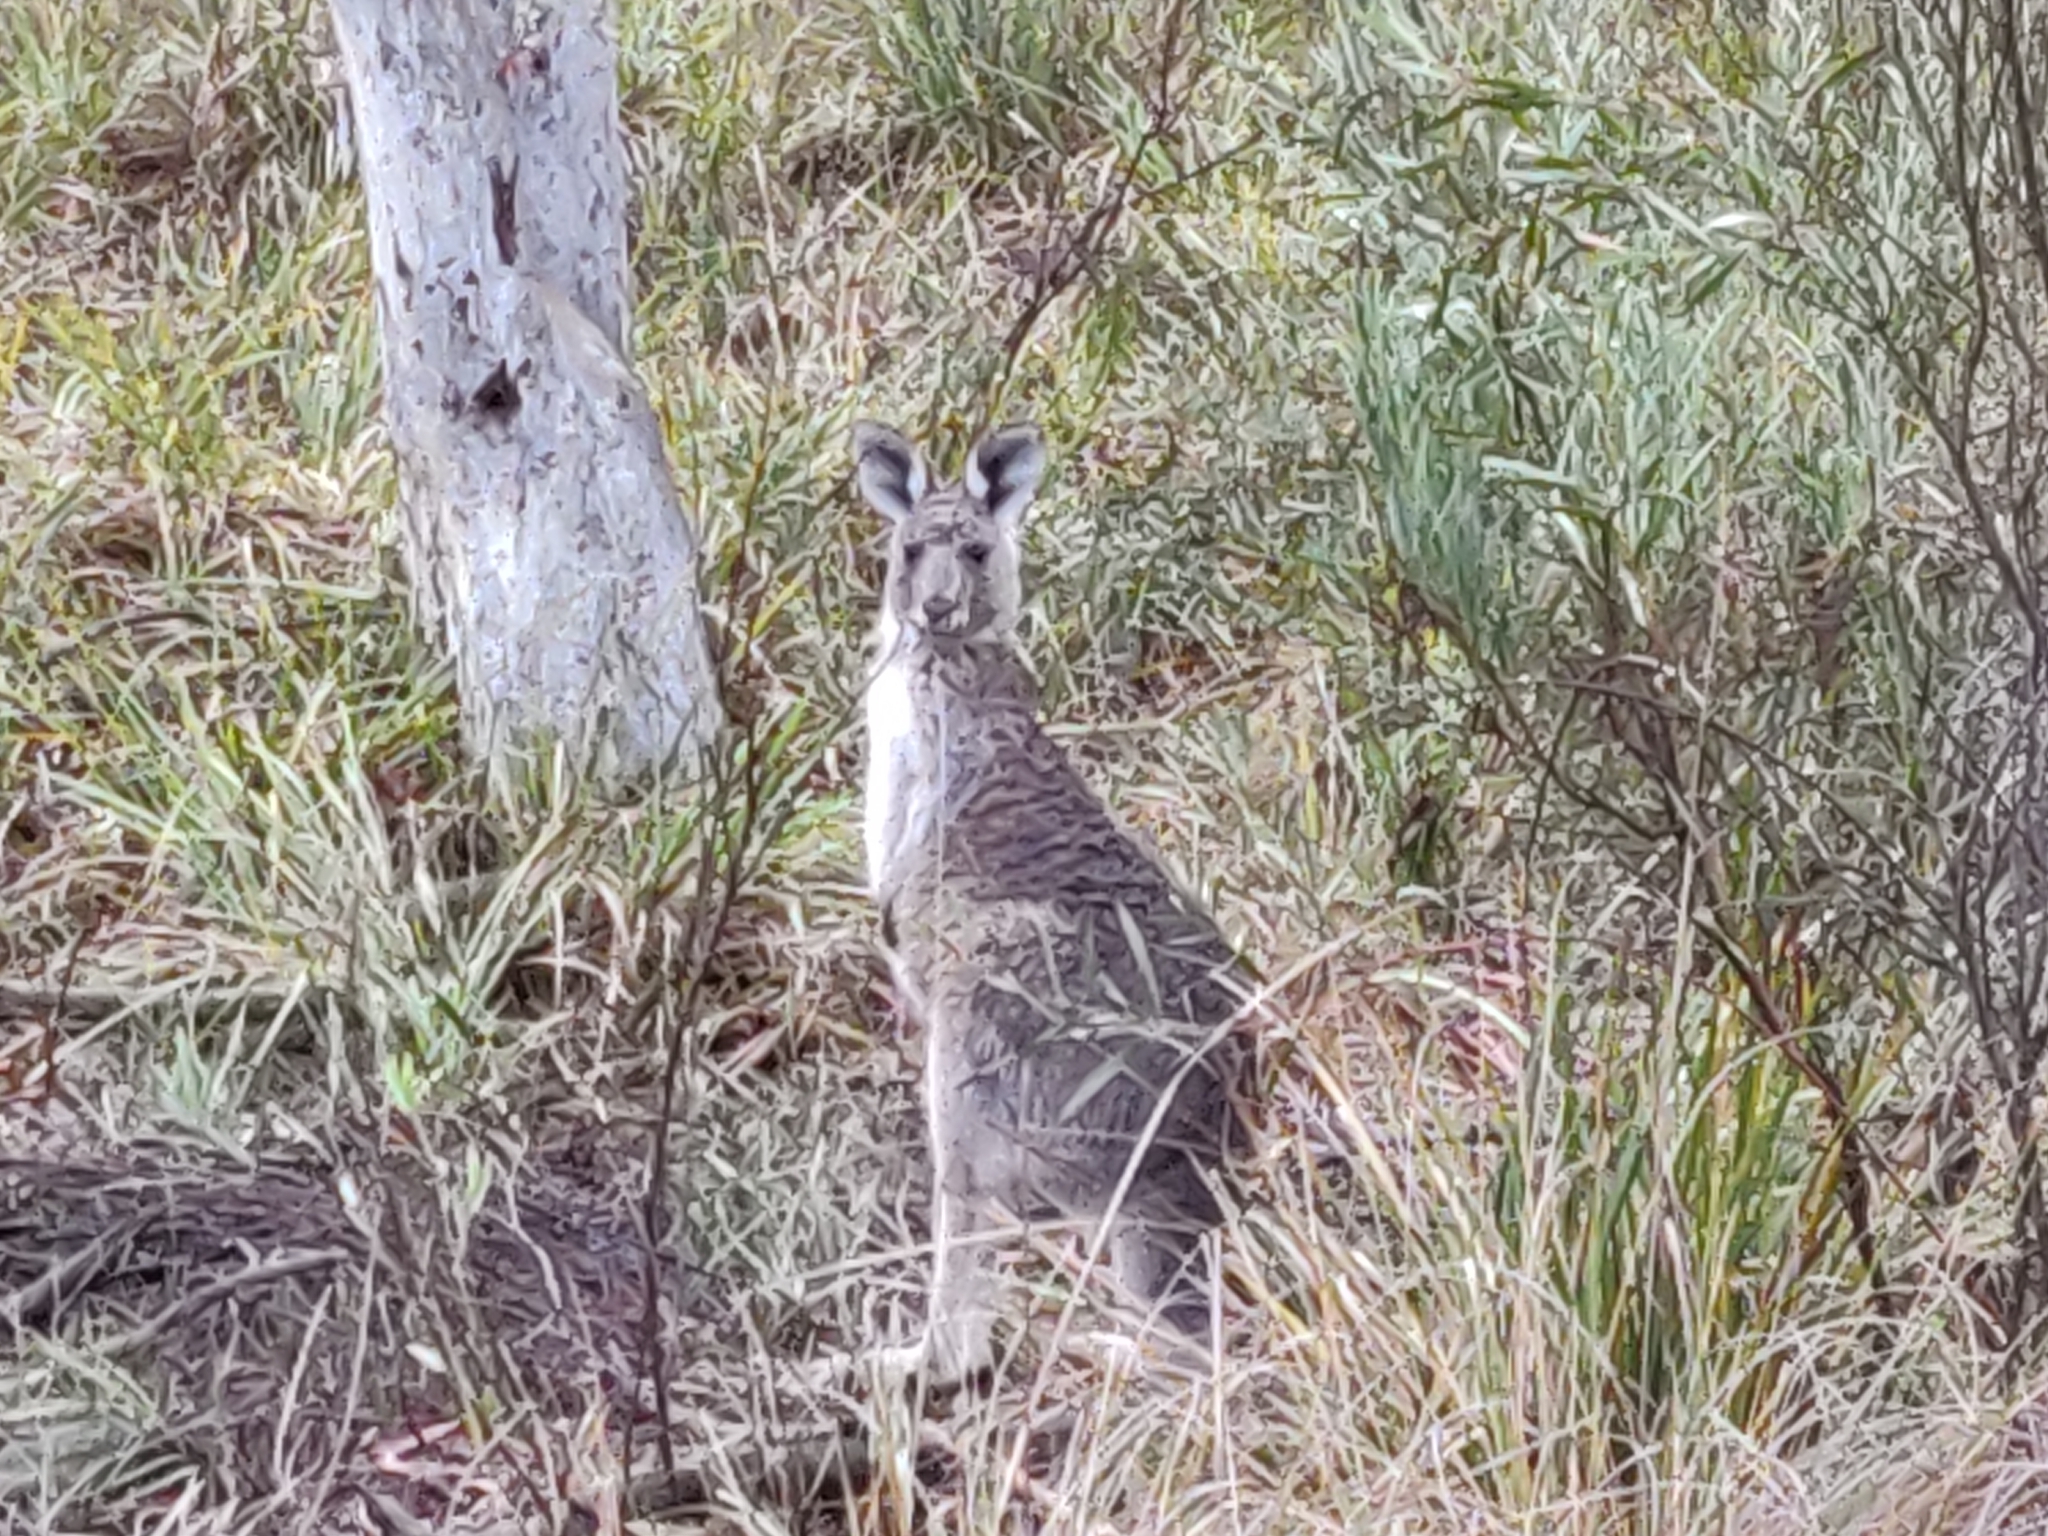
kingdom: Animalia
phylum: Chordata
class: Mammalia
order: Diprotodontia
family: Macropodidae
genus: Macropus
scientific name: Macropus giganteus
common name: Eastern grey kangaroo
